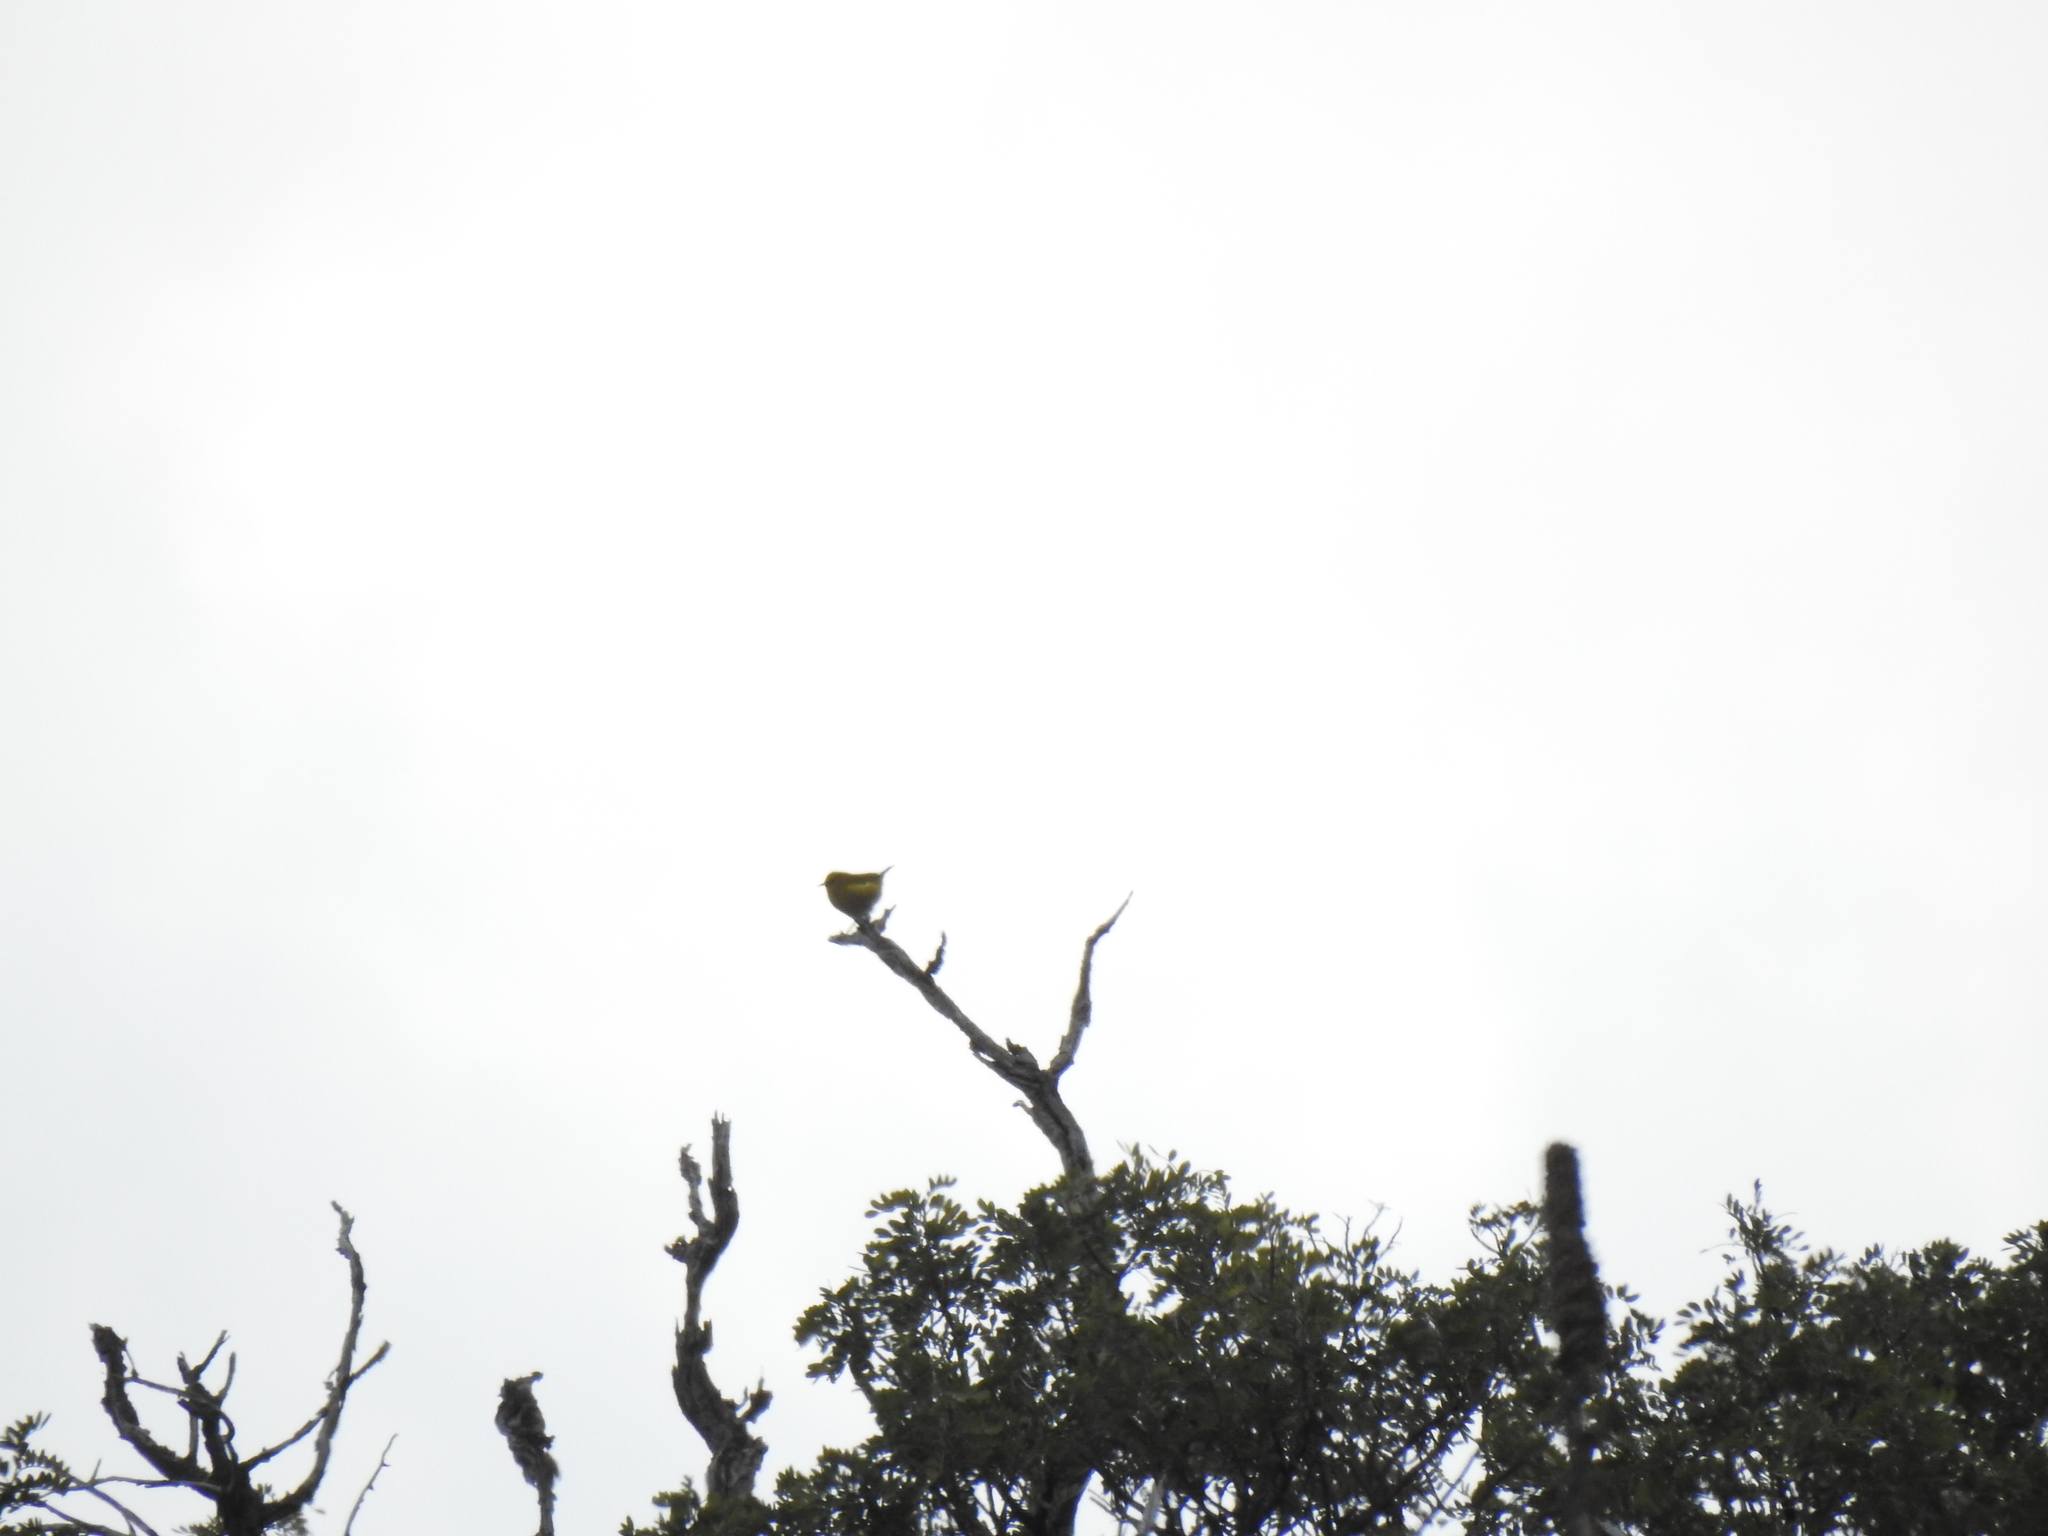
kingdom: Animalia
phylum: Chordata
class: Aves
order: Passeriformes
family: Fringillidae
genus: Chlorodrepanis
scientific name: Chlorodrepanis virens
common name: Hawaii amakihi
